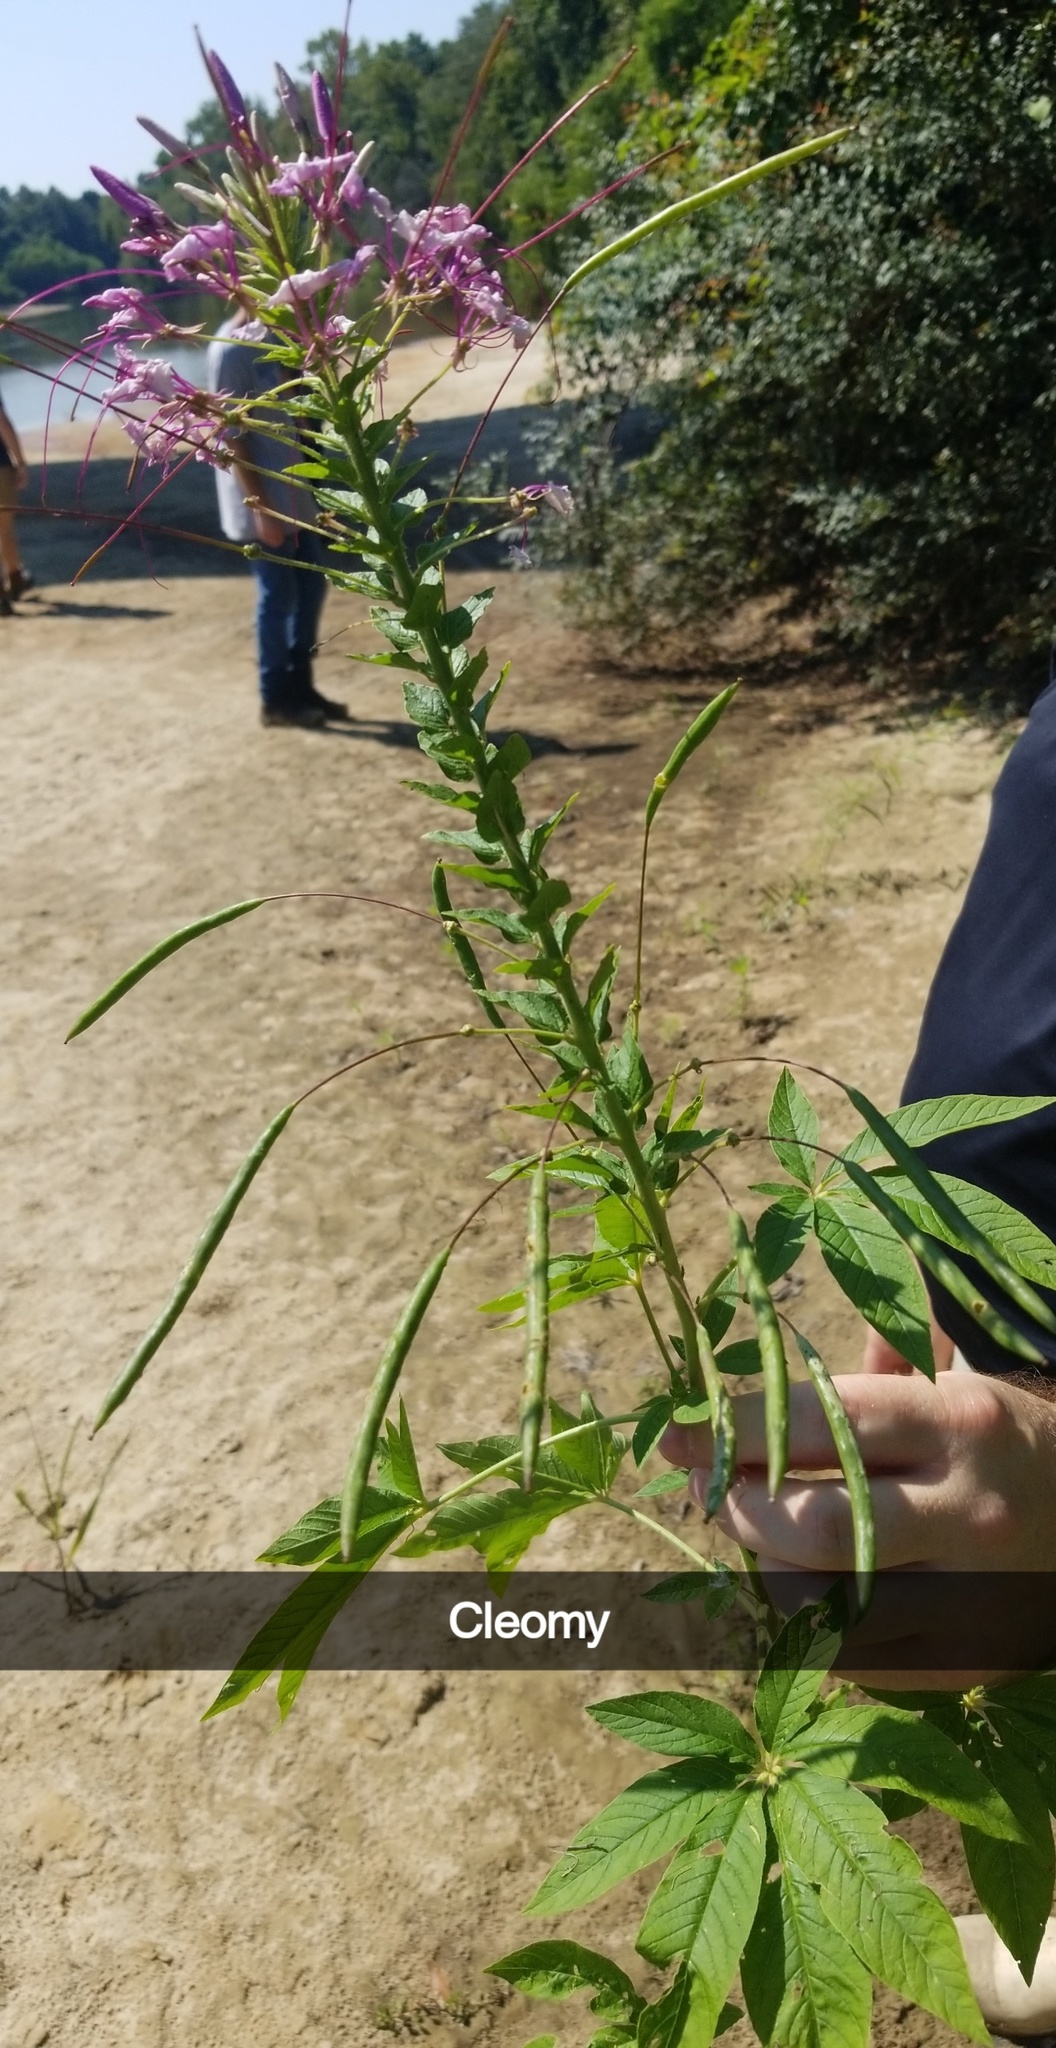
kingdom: Plantae
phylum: Tracheophyta
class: Magnoliopsida
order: Brassicales
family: Cleomaceae
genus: Tarenaya
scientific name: Tarenaya houtteana
